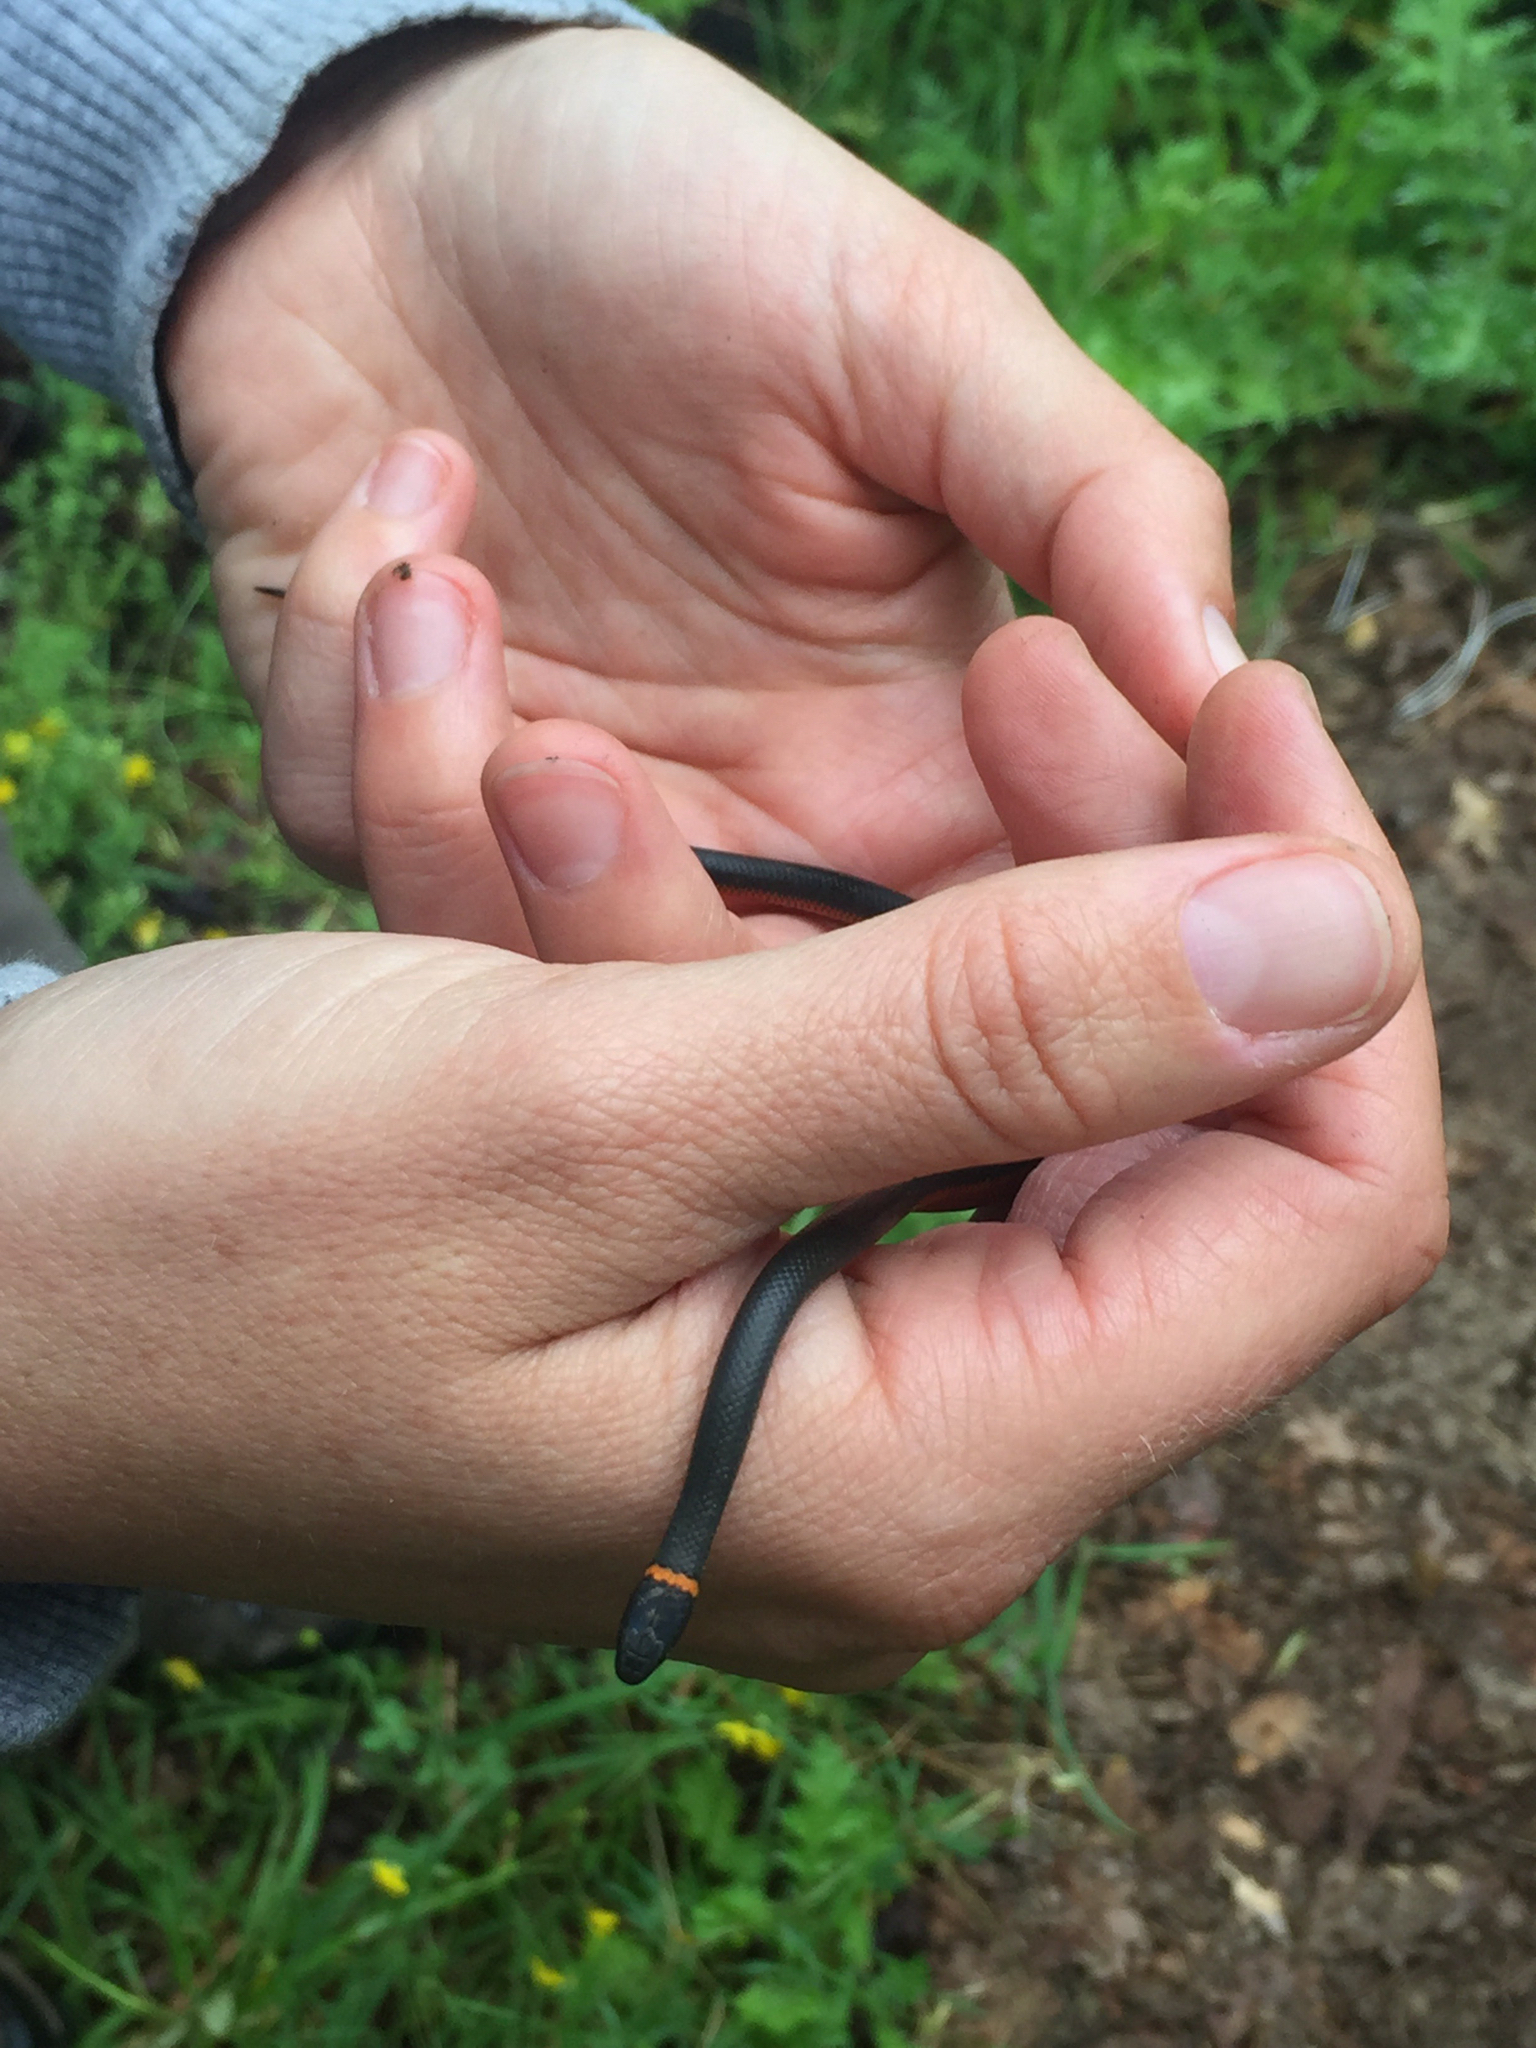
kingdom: Animalia
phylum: Chordata
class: Squamata
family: Colubridae
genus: Diadophis
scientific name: Diadophis punctatus
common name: Ringneck snake
